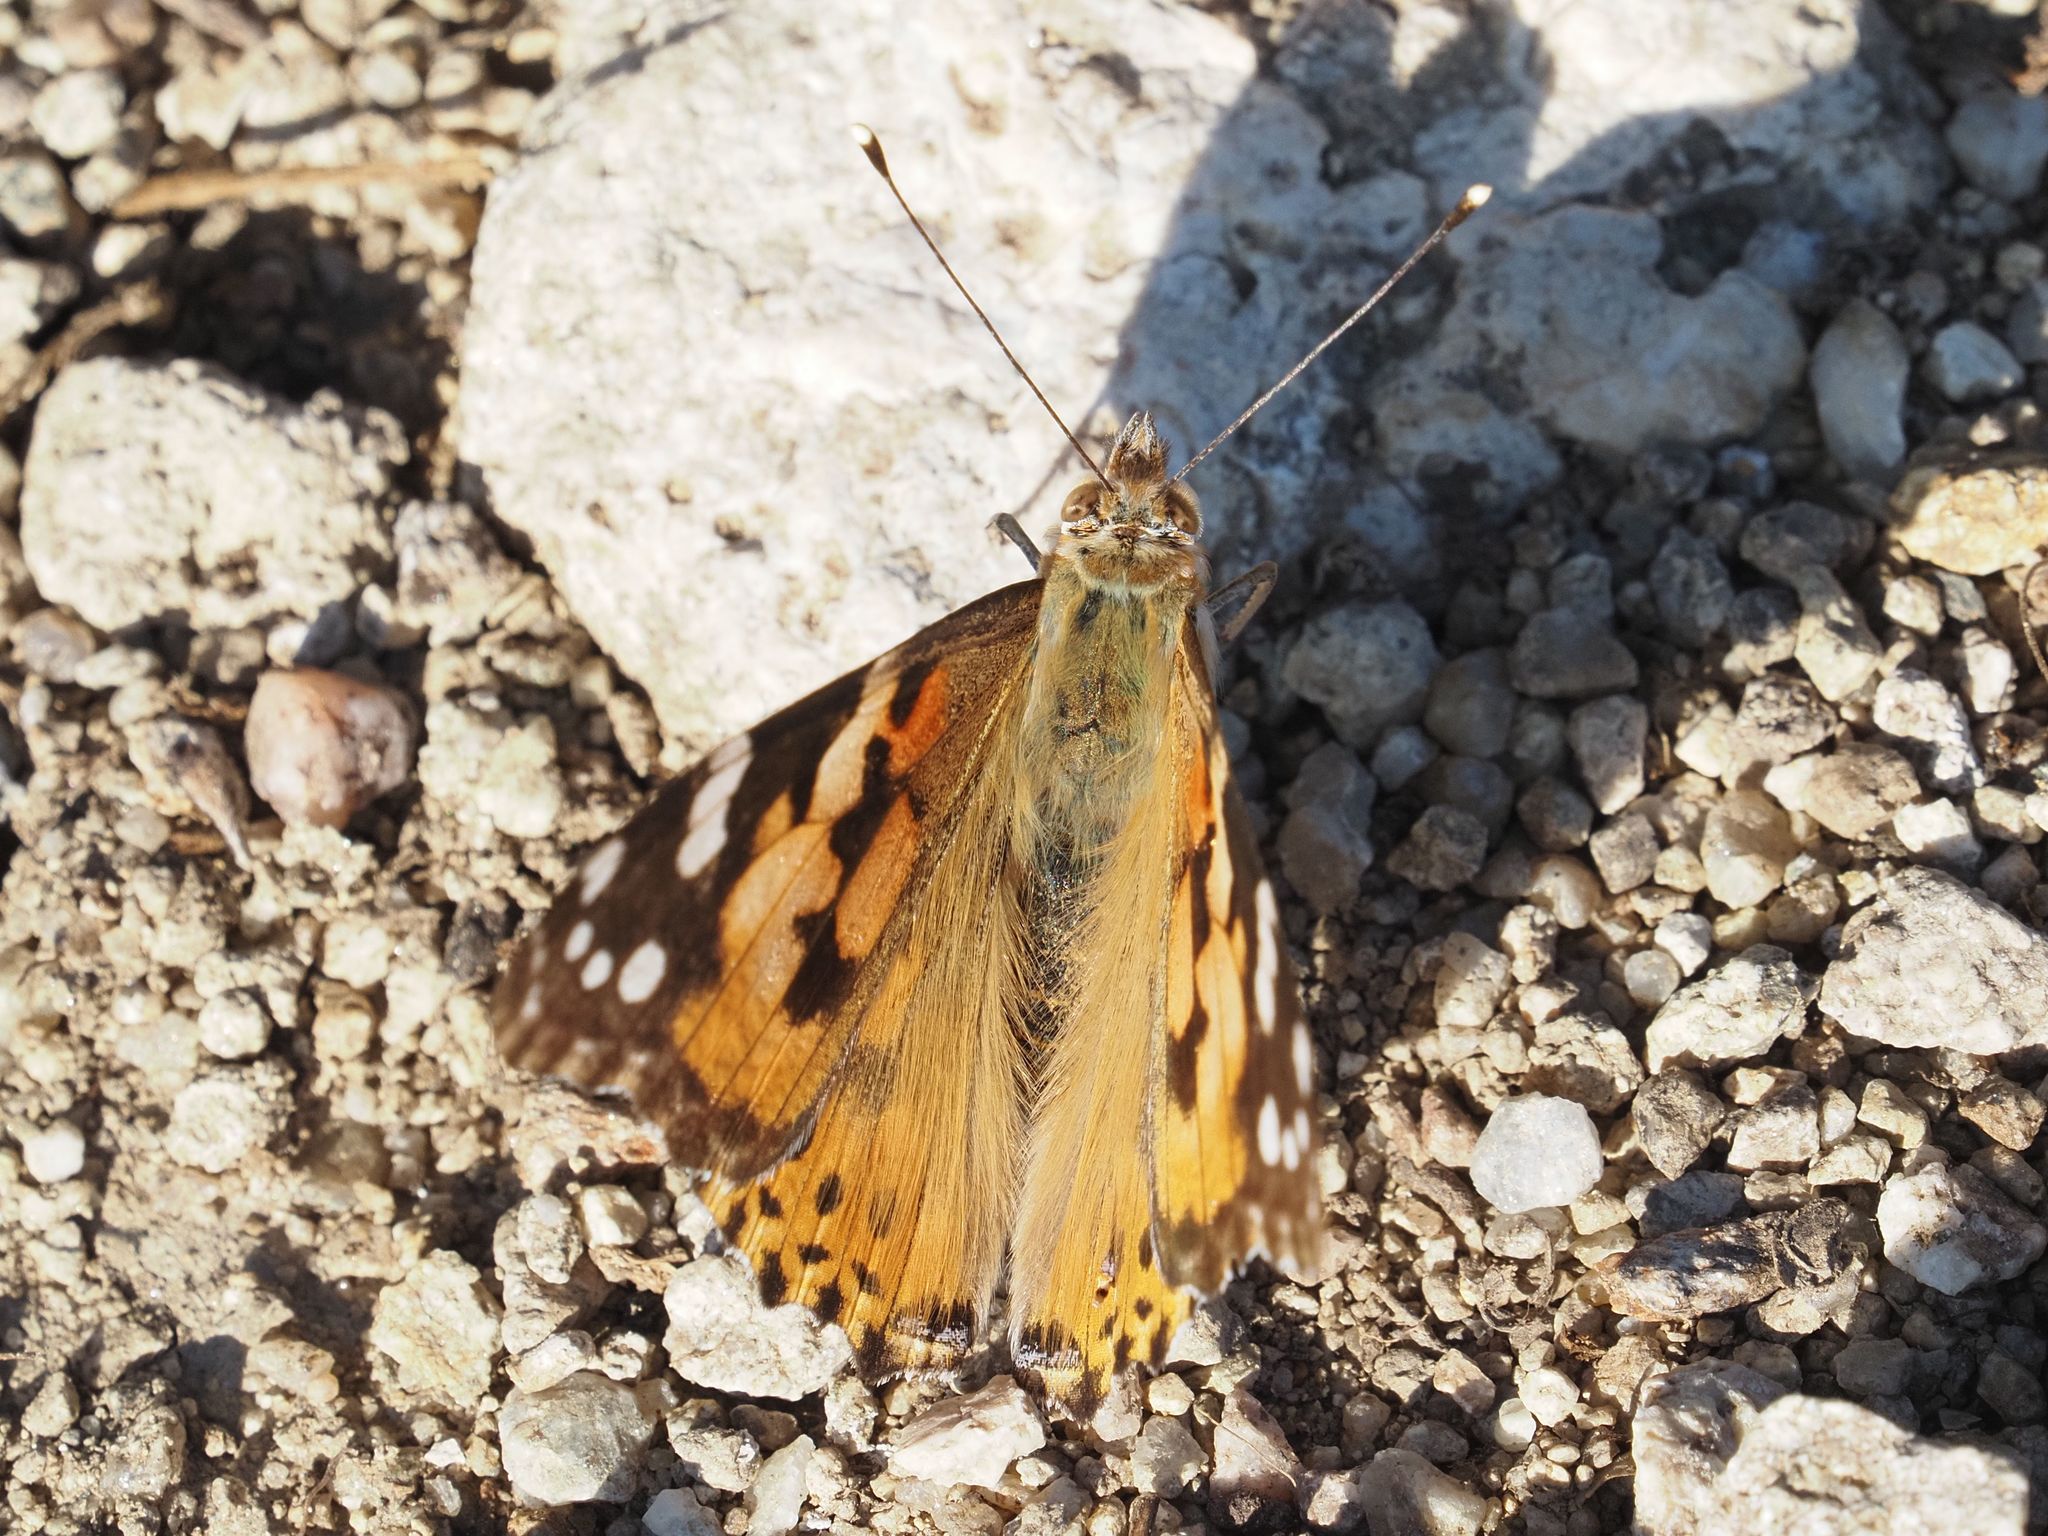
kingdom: Animalia
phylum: Arthropoda
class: Insecta
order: Lepidoptera
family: Nymphalidae
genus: Vanessa
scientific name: Vanessa cardui
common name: Painted lady
